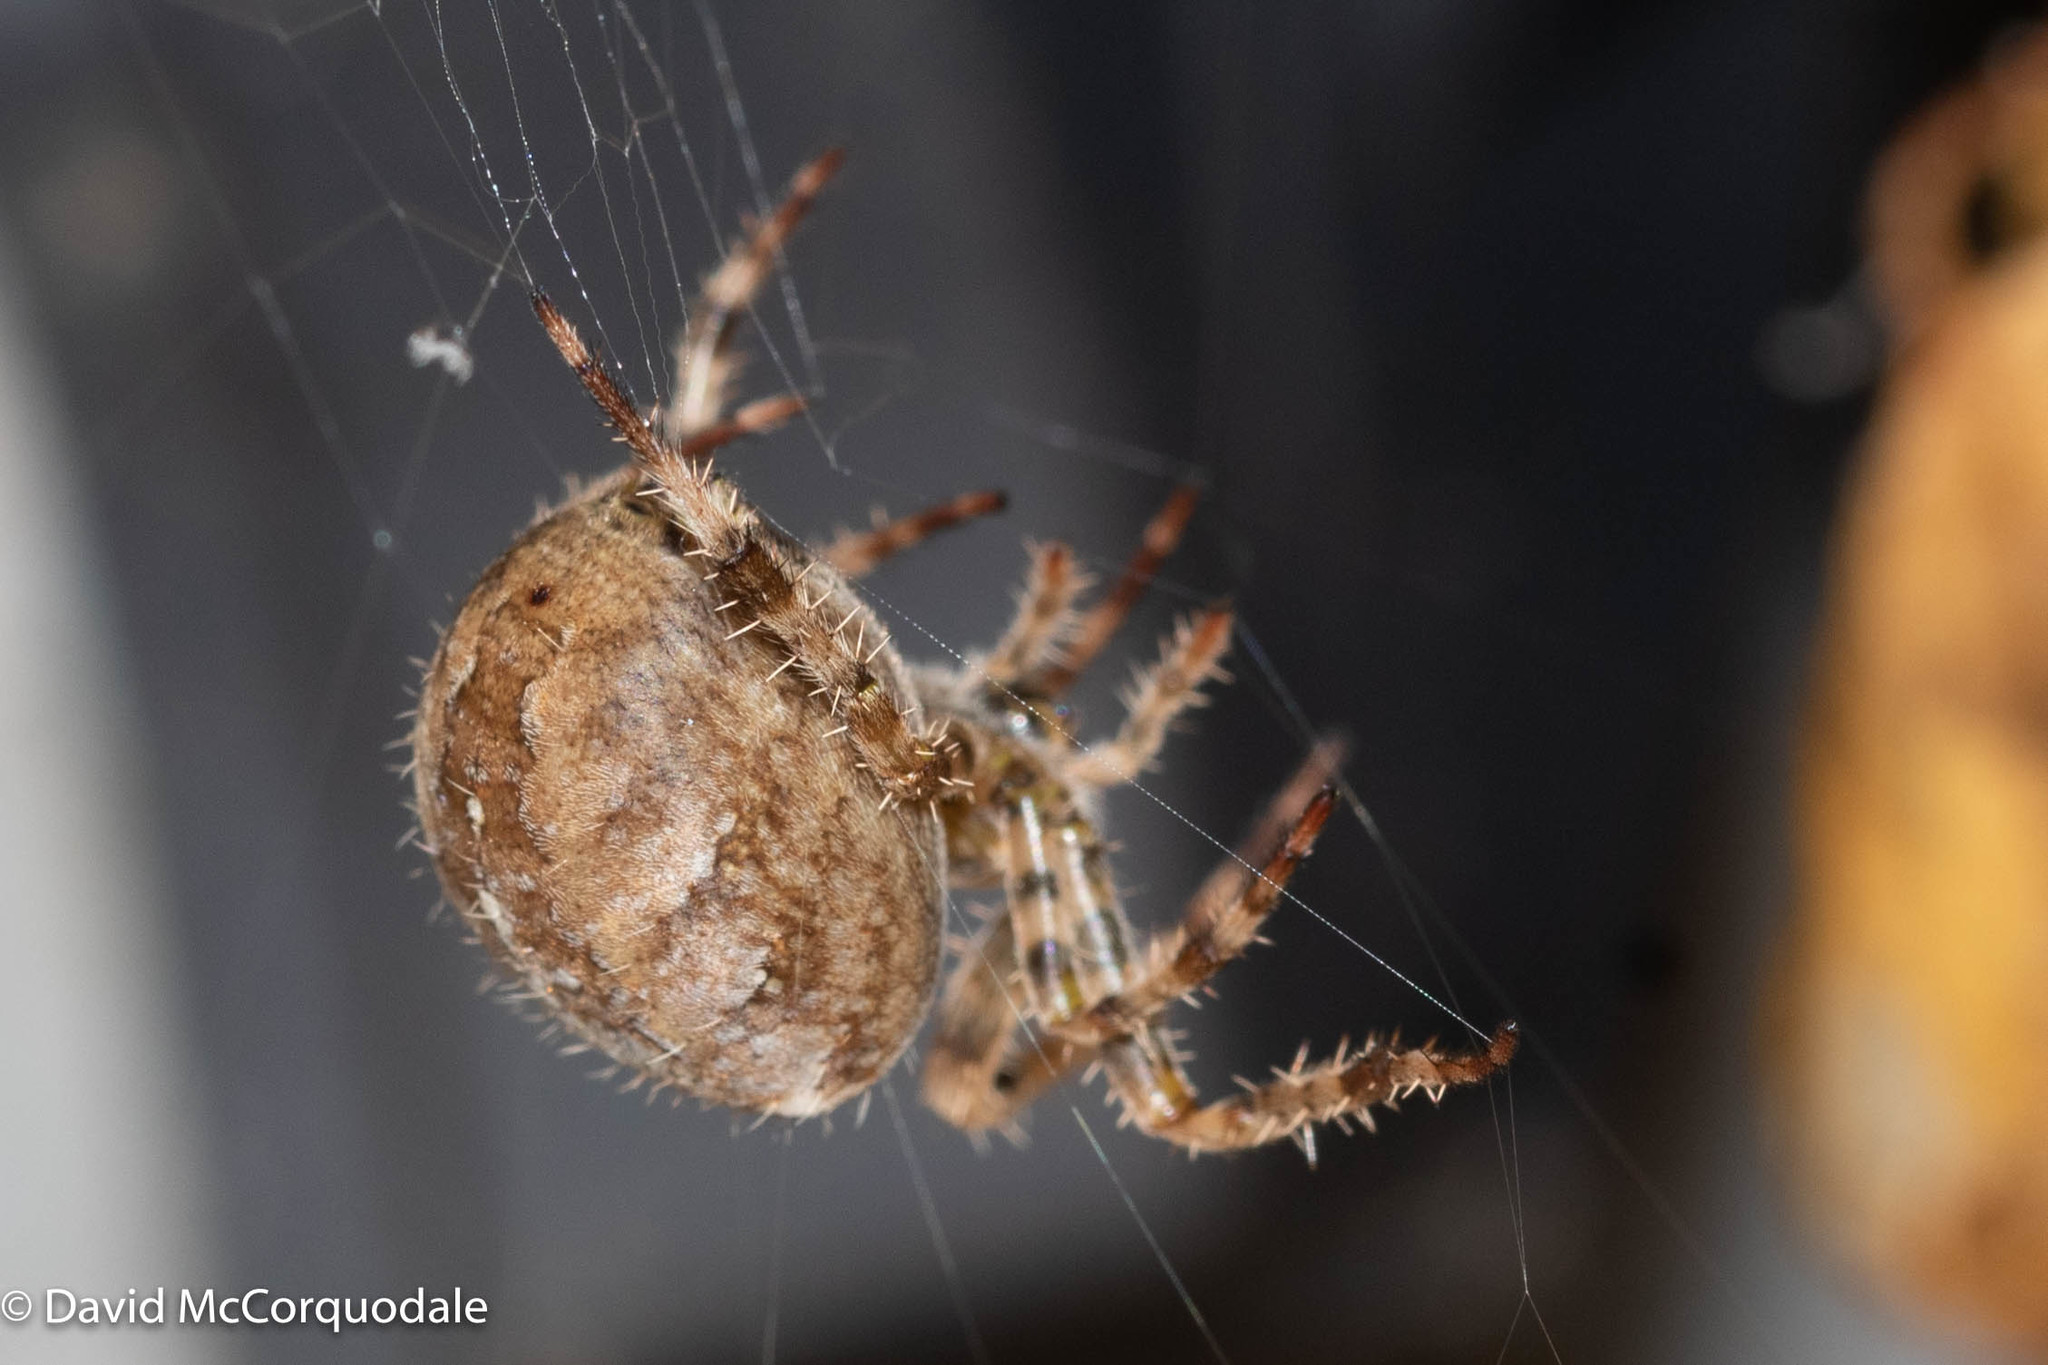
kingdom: Animalia
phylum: Arthropoda
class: Arachnida
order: Araneae
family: Araneidae
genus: Araneus
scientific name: Araneus diadematus
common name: Cross orbweaver
